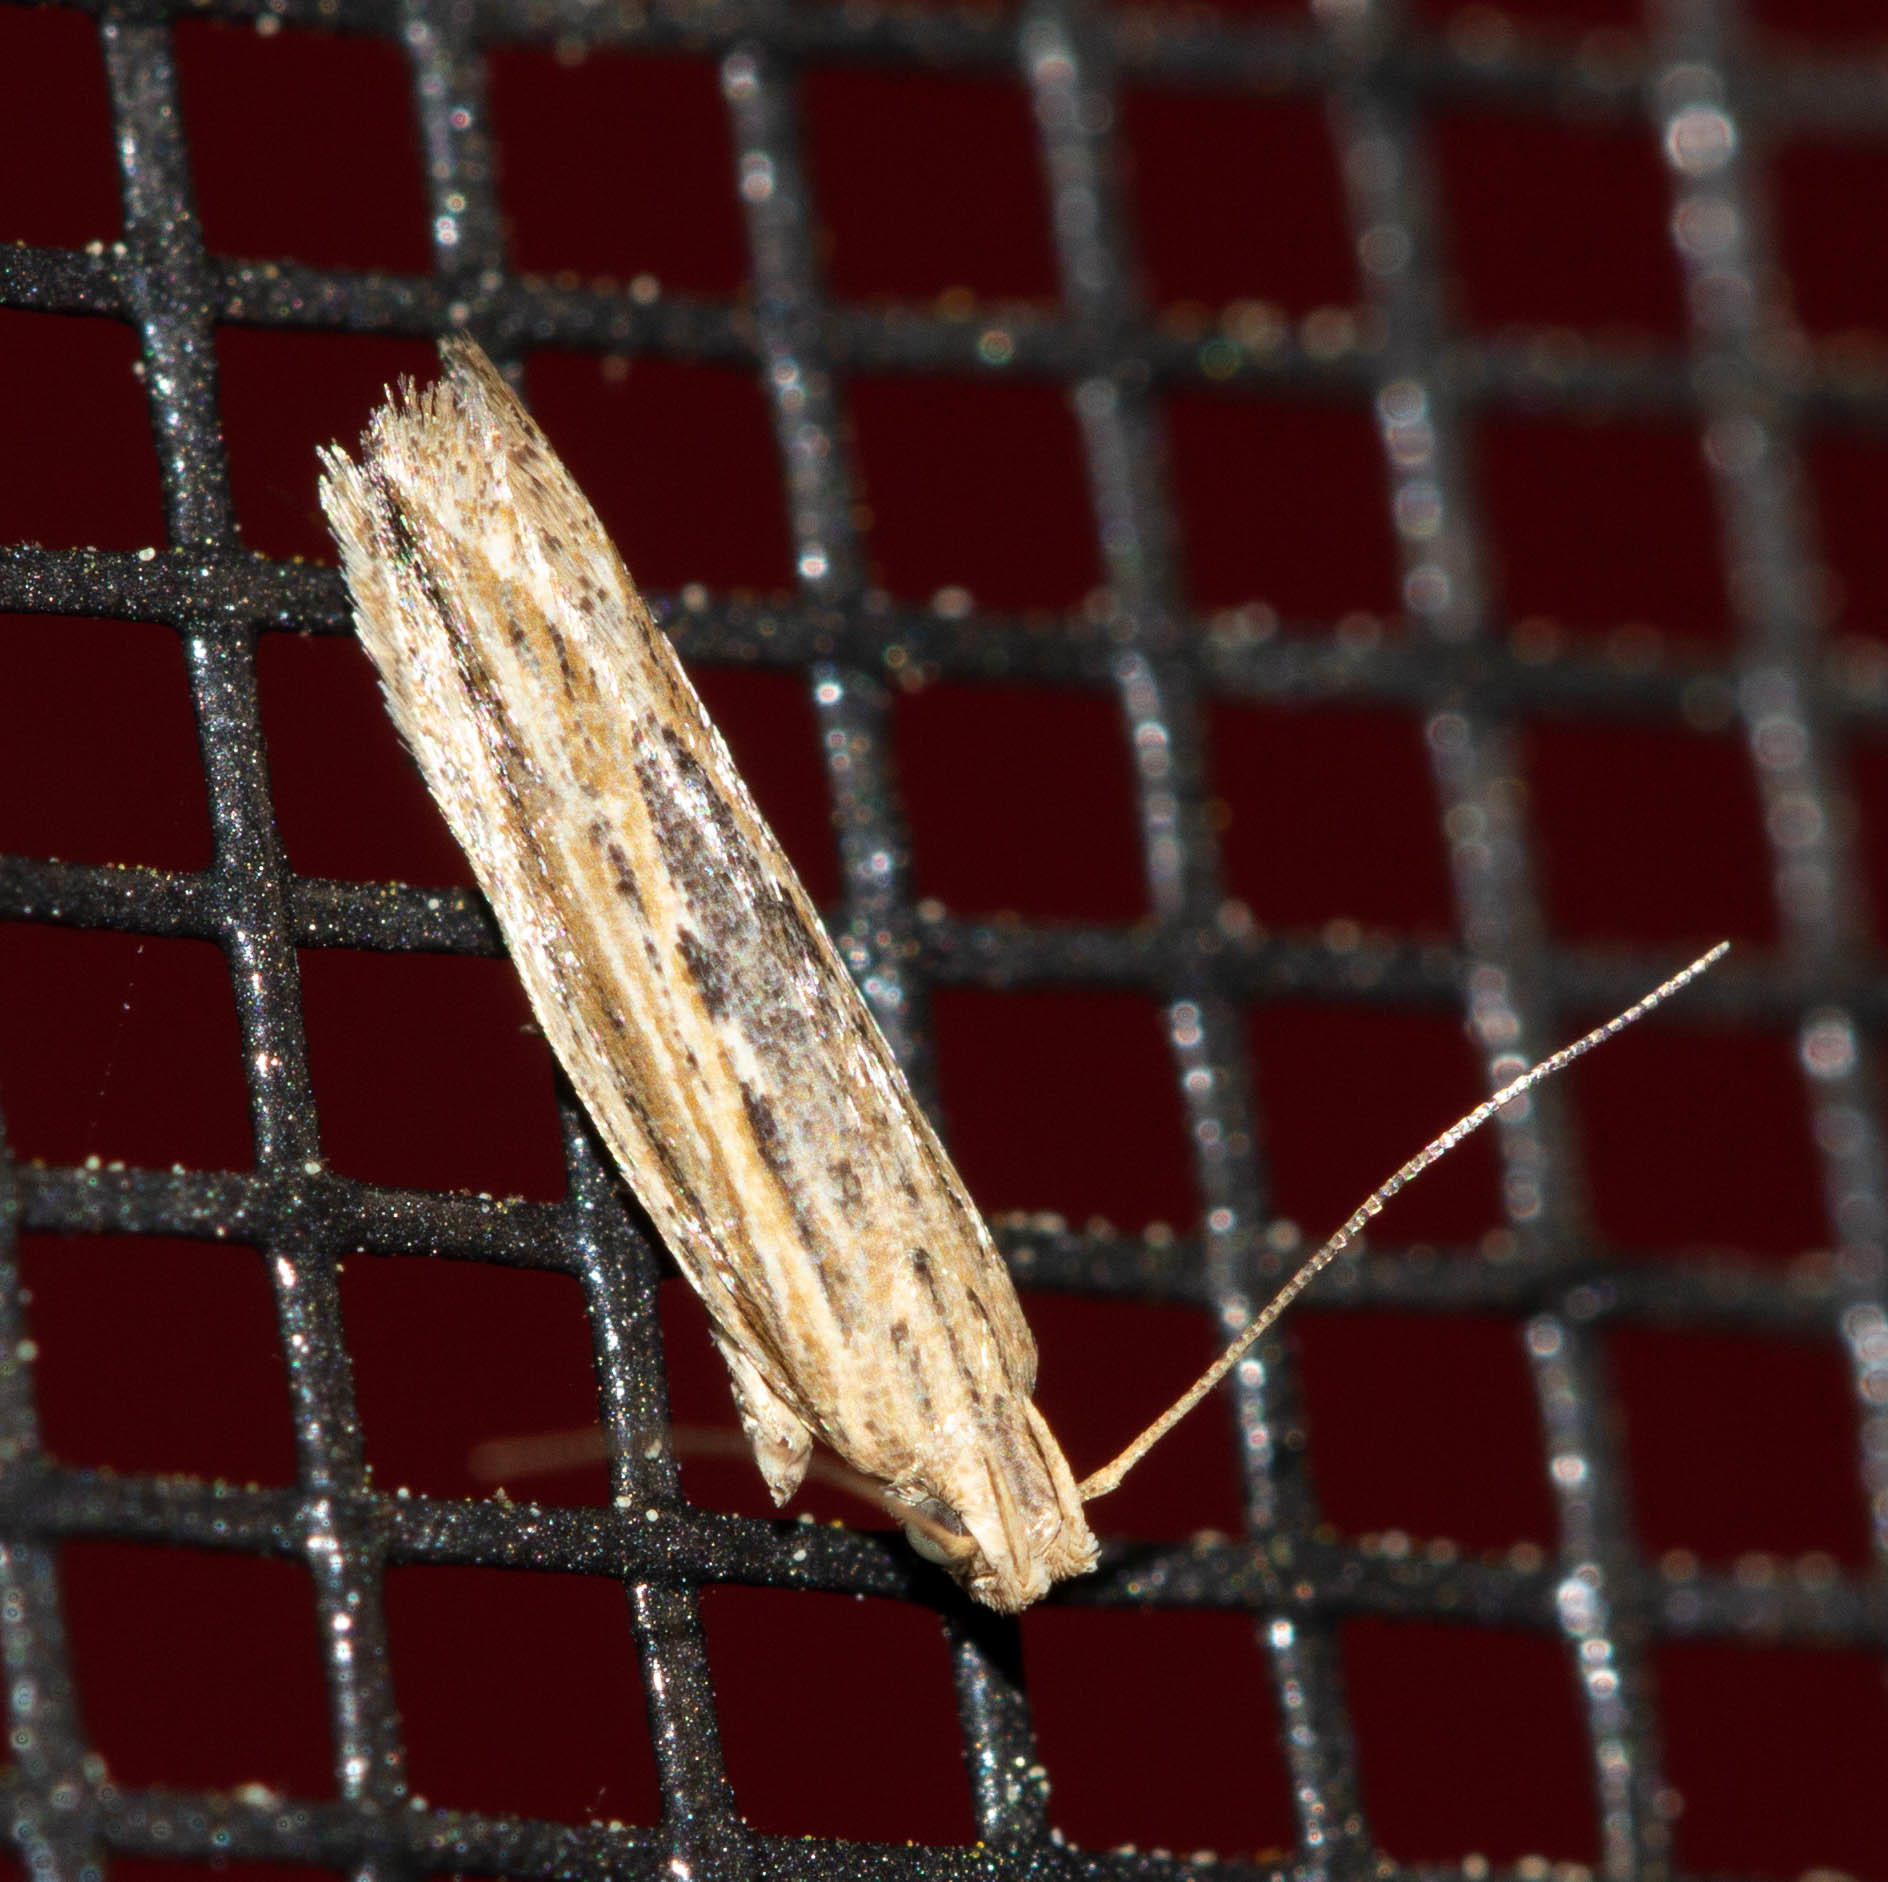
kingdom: Animalia
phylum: Arthropoda
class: Insecta
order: Lepidoptera
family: Gelechiidae
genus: Symmetrischema
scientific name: Symmetrischema striatella
